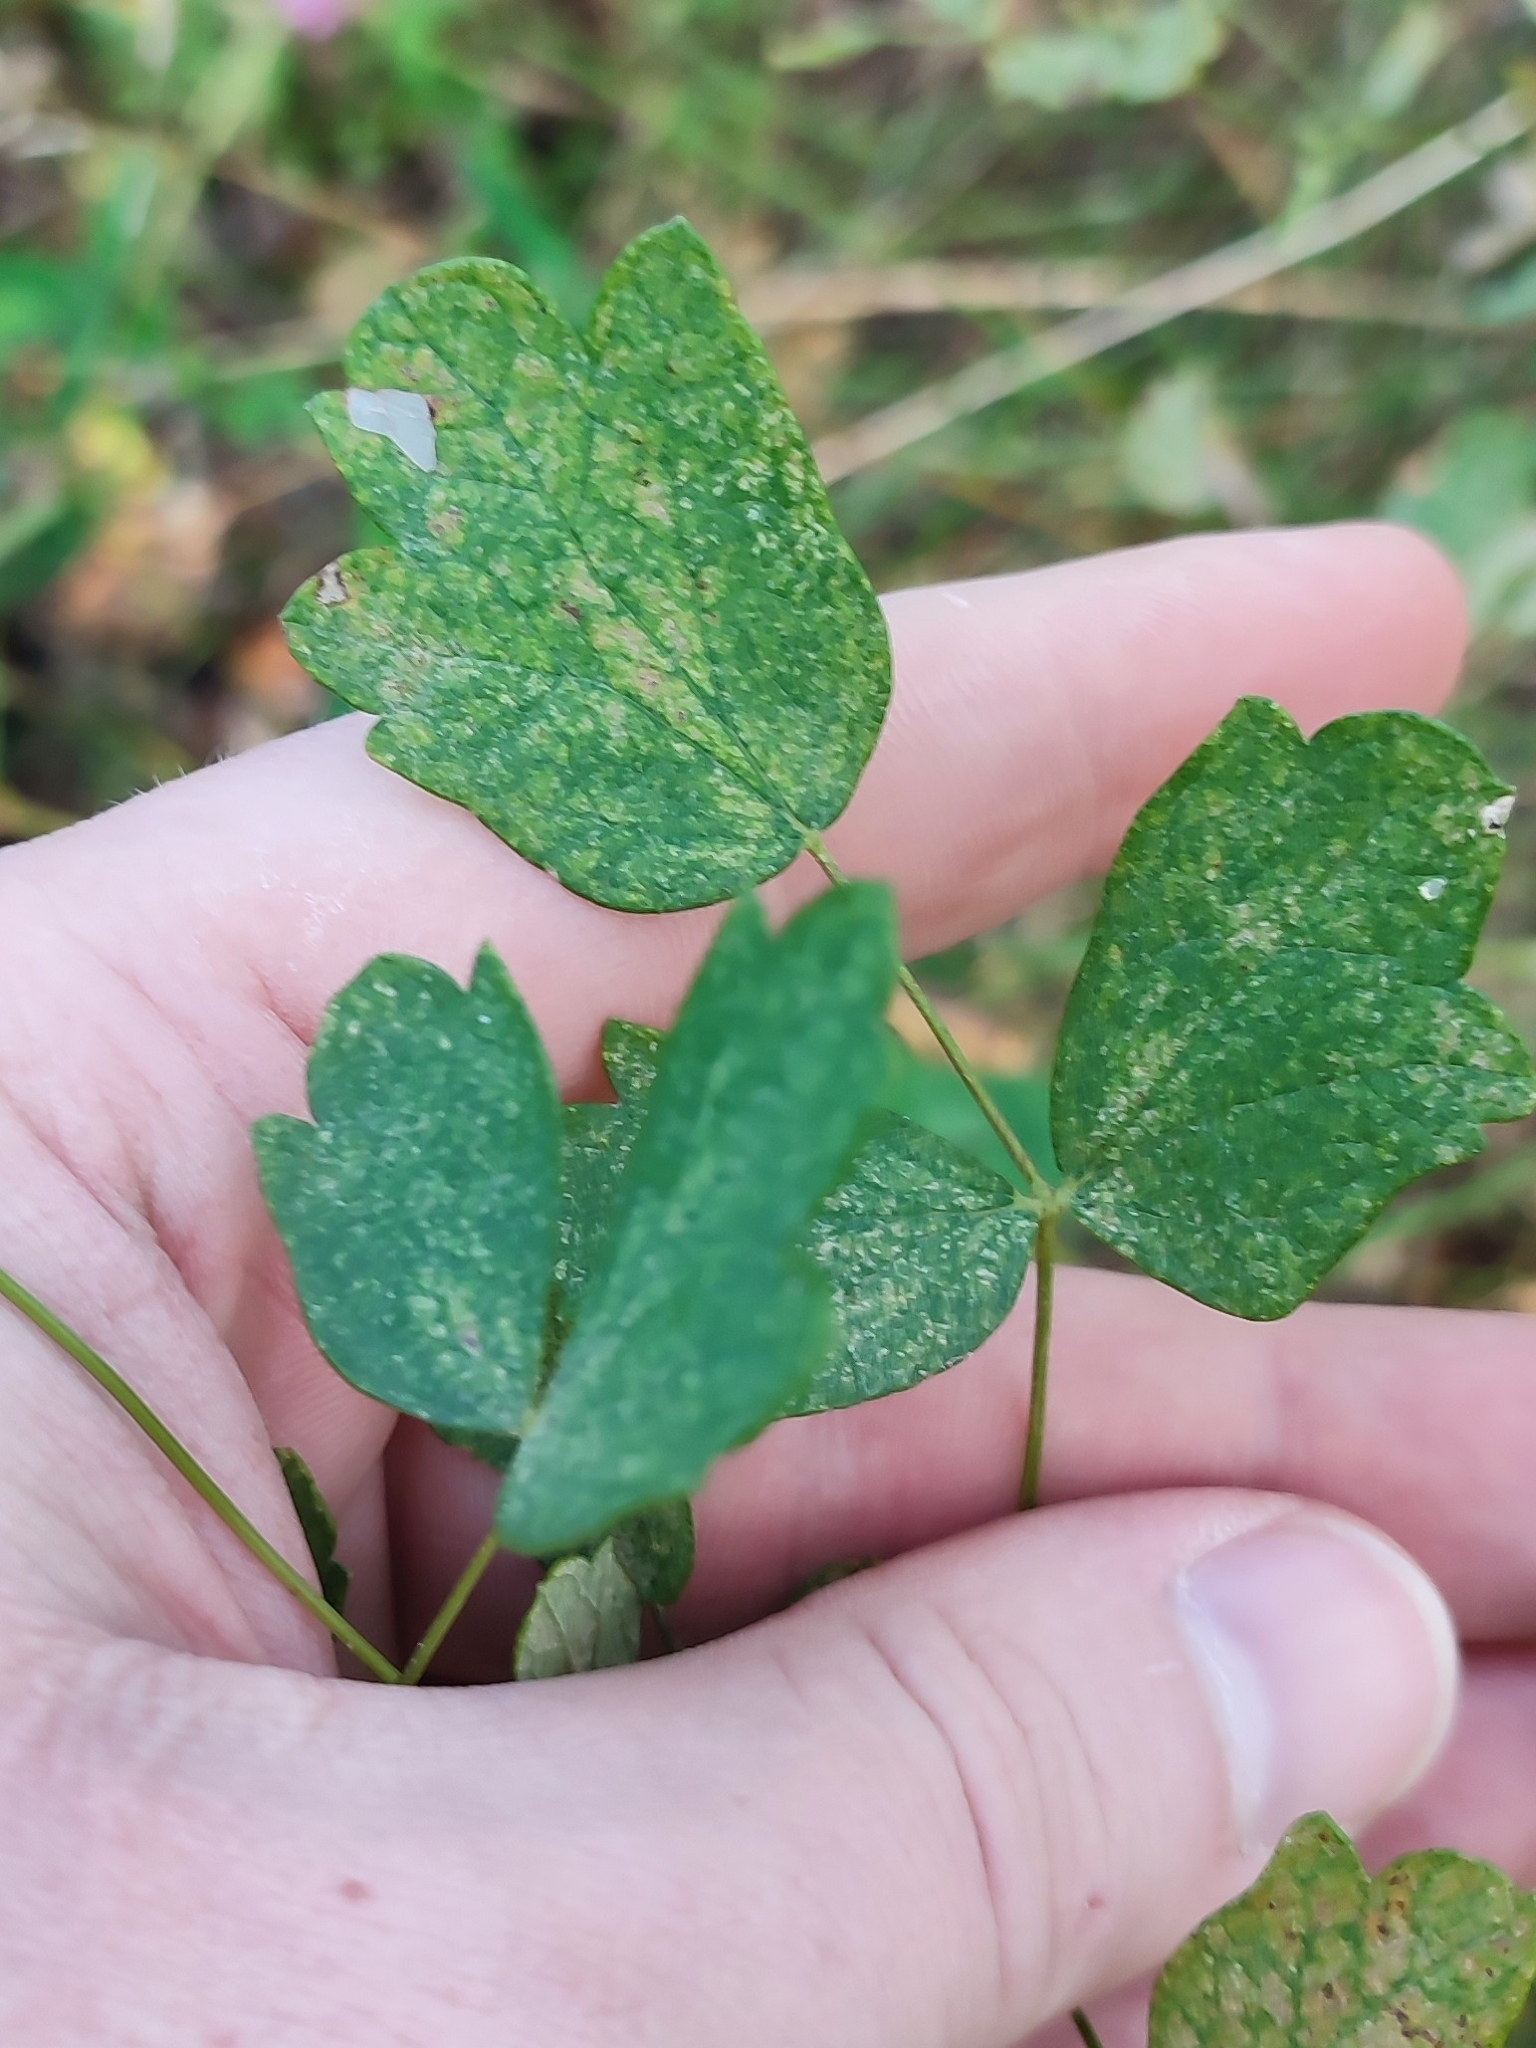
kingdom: Plantae
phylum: Tracheophyta
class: Magnoliopsida
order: Ranunculales
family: Ranunculaceae
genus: Thalictrum
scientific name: Thalictrum minus
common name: Lesser meadow-rue
